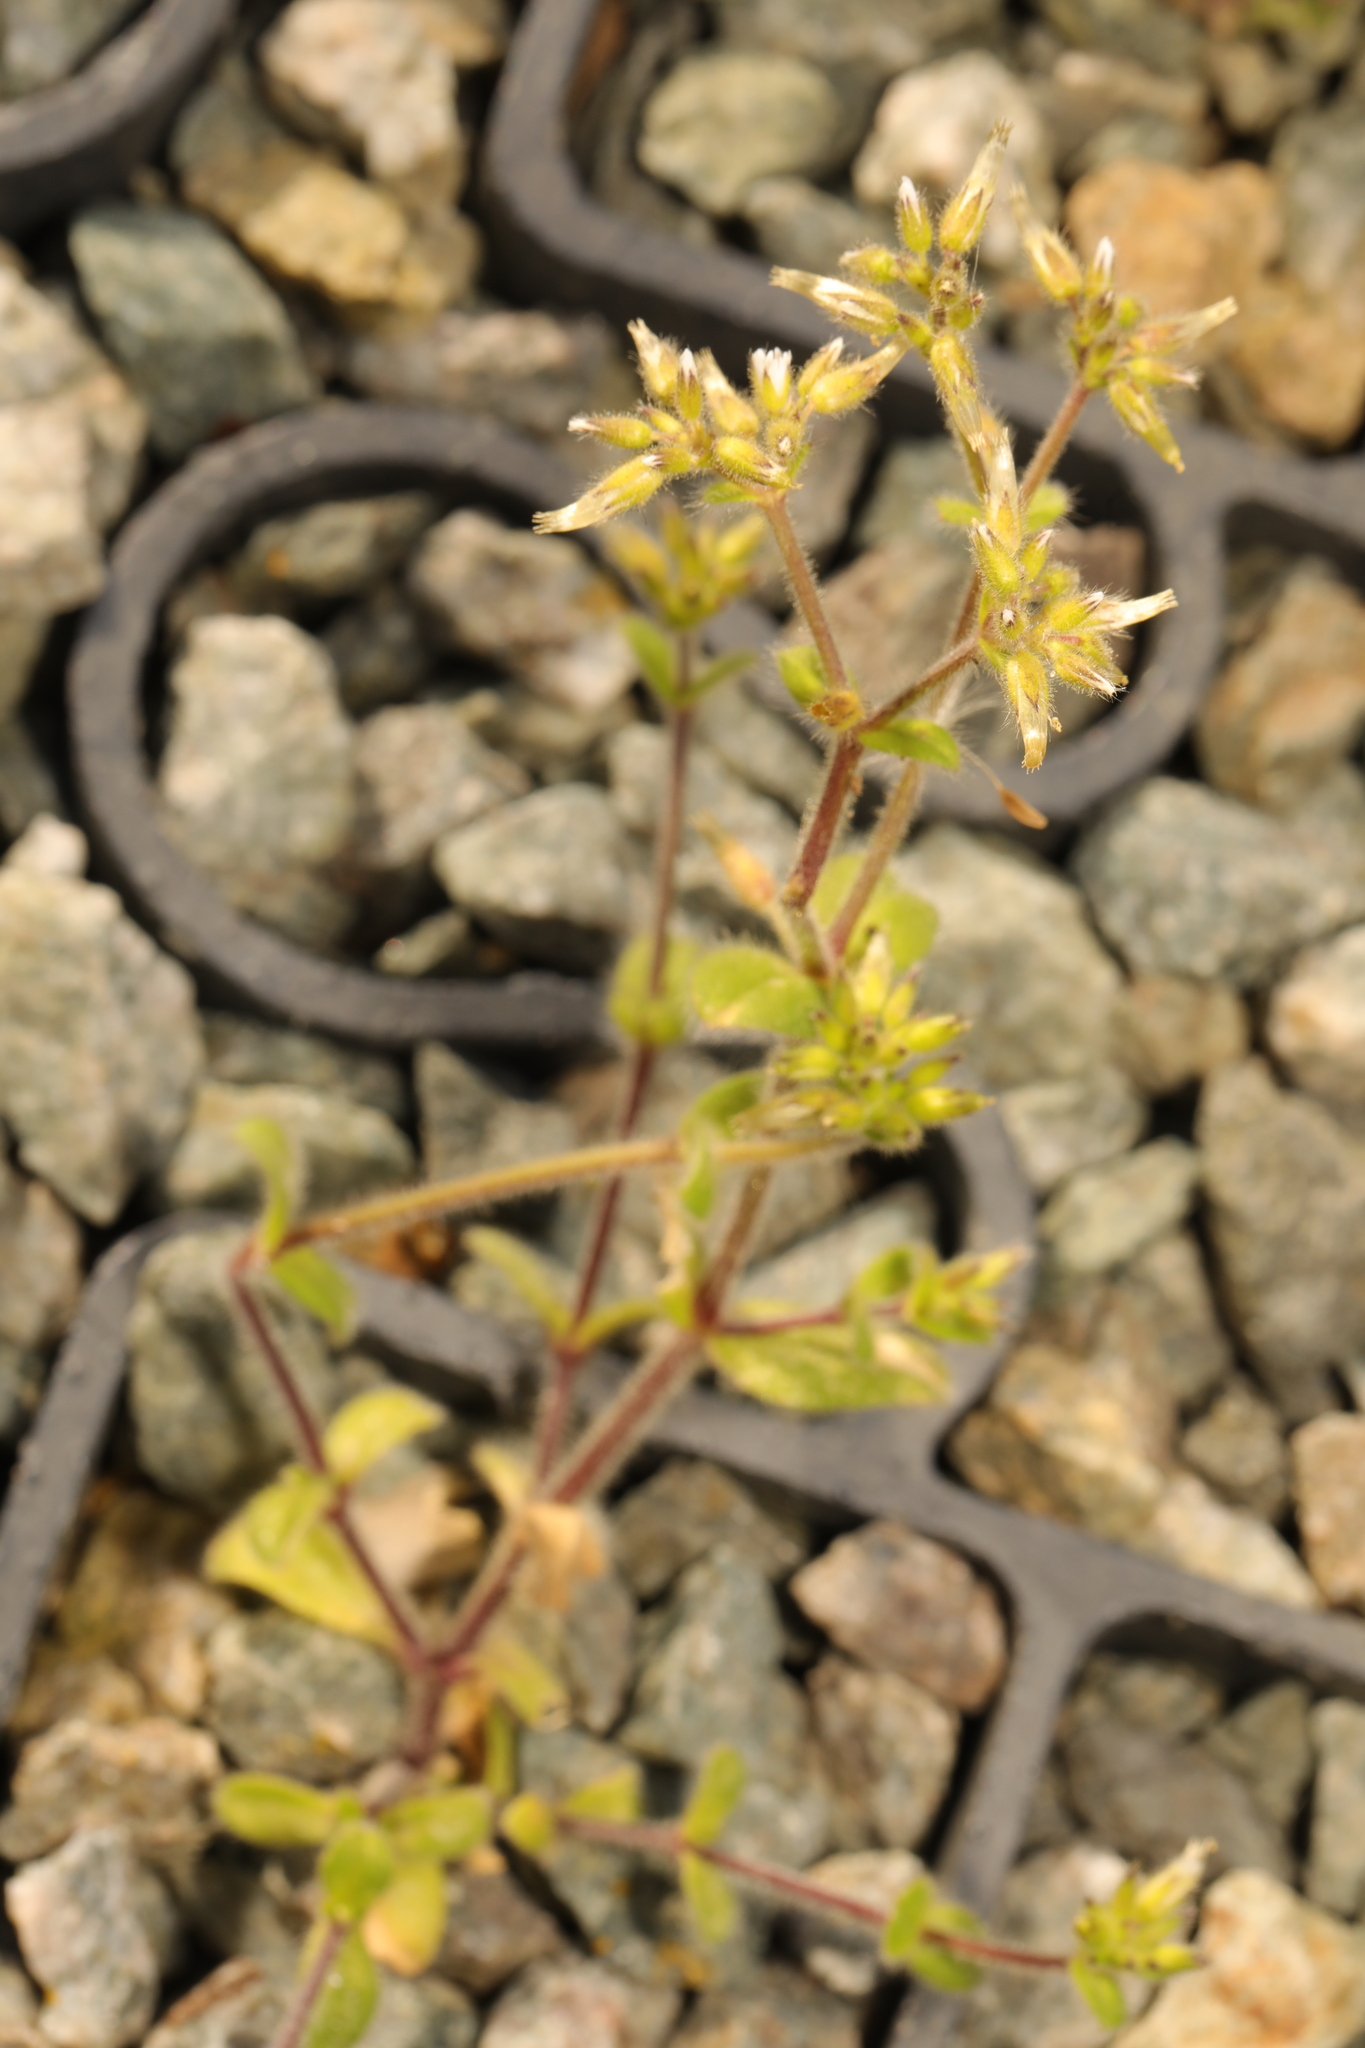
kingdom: Plantae
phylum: Tracheophyta
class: Magnoliopsida
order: Caryophyllales
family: Caryophyllaceae
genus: Cerastium
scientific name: Cerastium glomeratum
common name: Sticky chickweed
